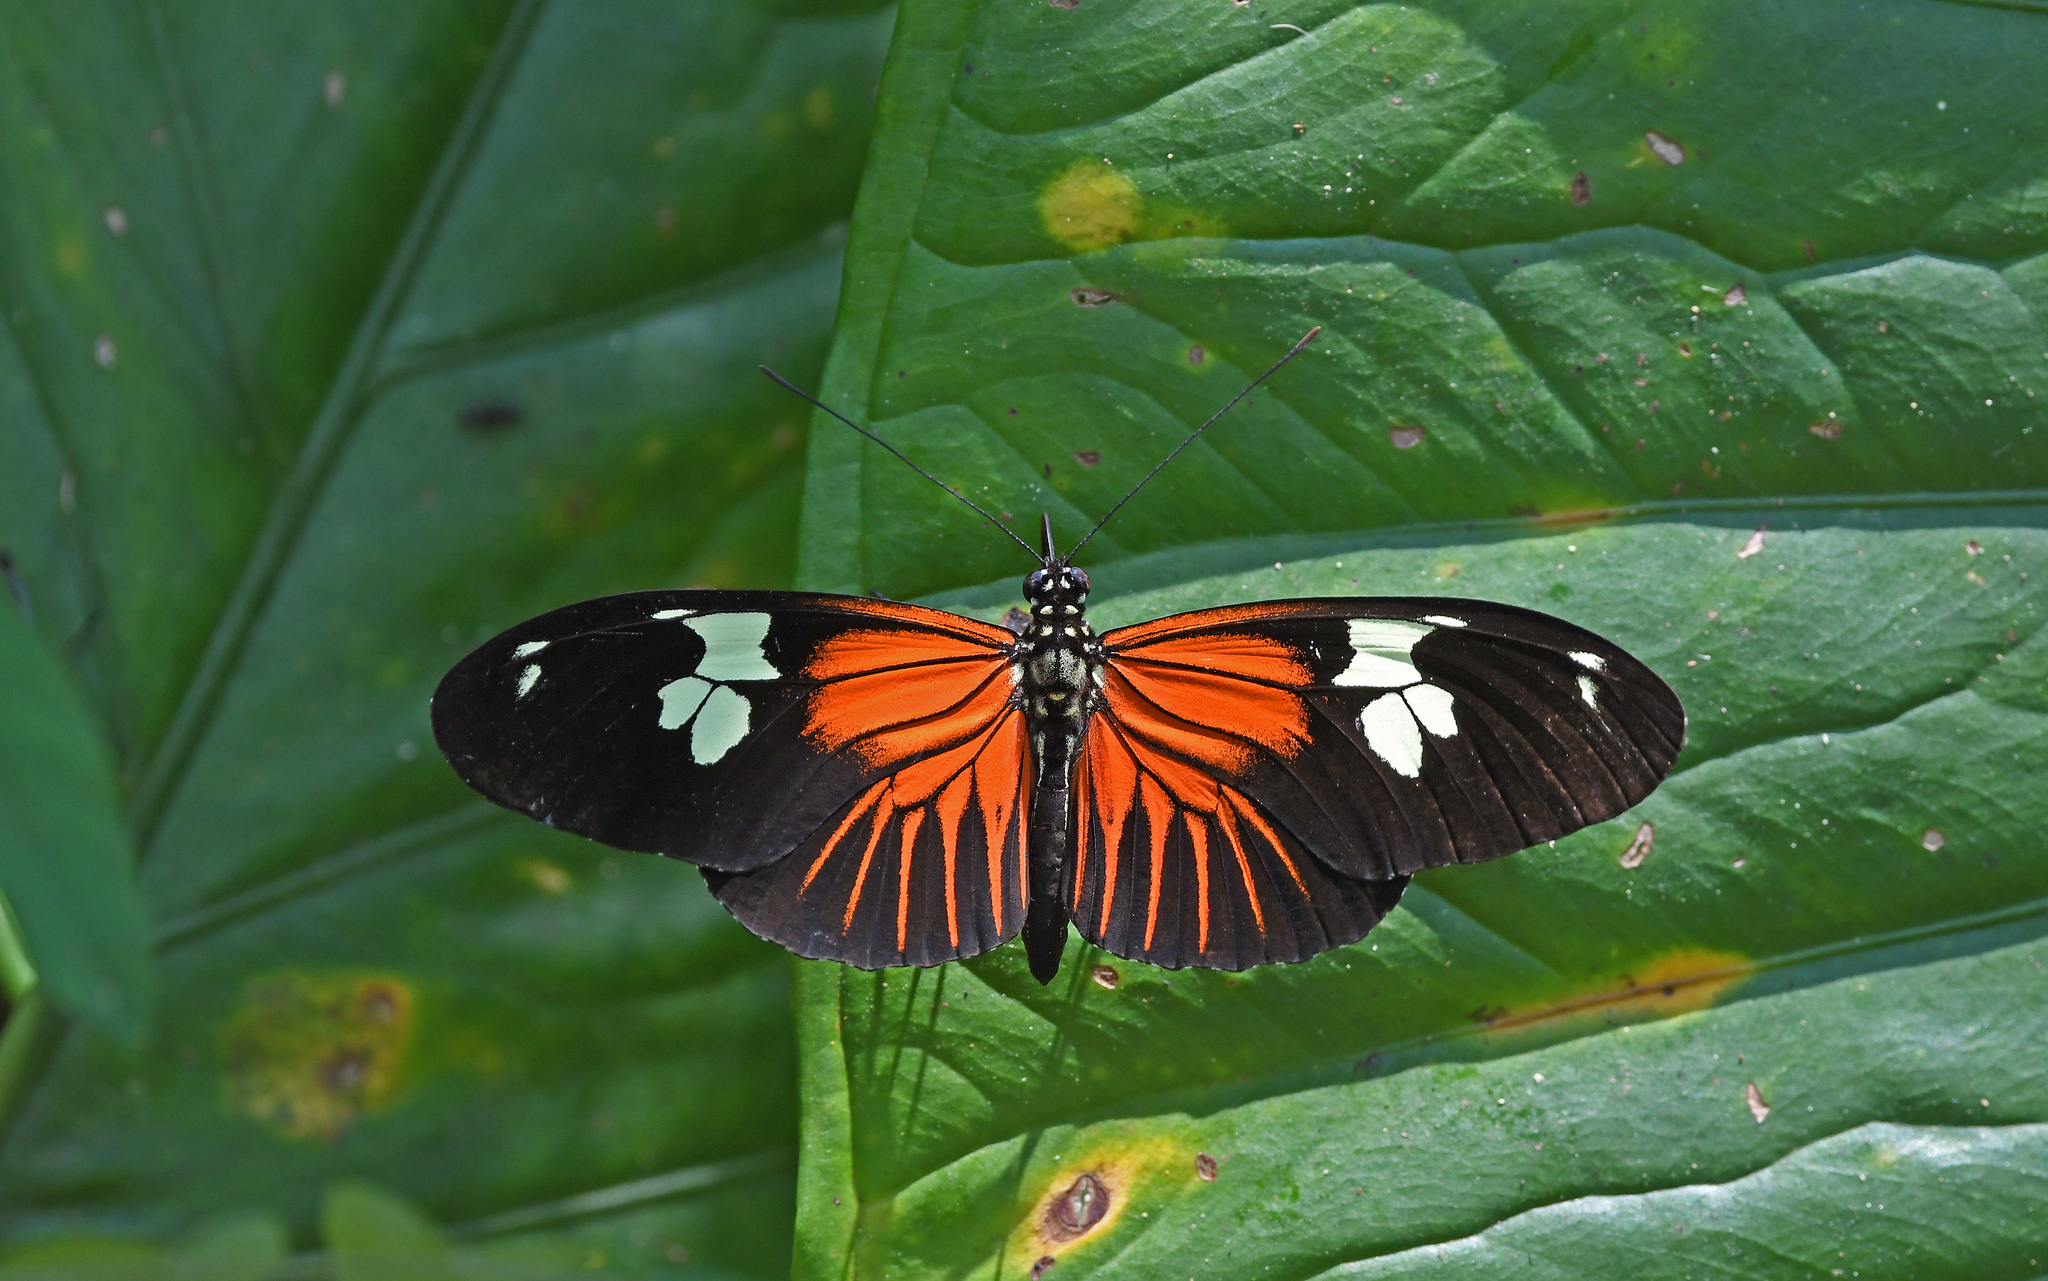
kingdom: Animalia
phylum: Arthropoda
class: Insecta
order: Lepidoptera
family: Nymphalidae
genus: Heliconius
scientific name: Heliconius burneyi
